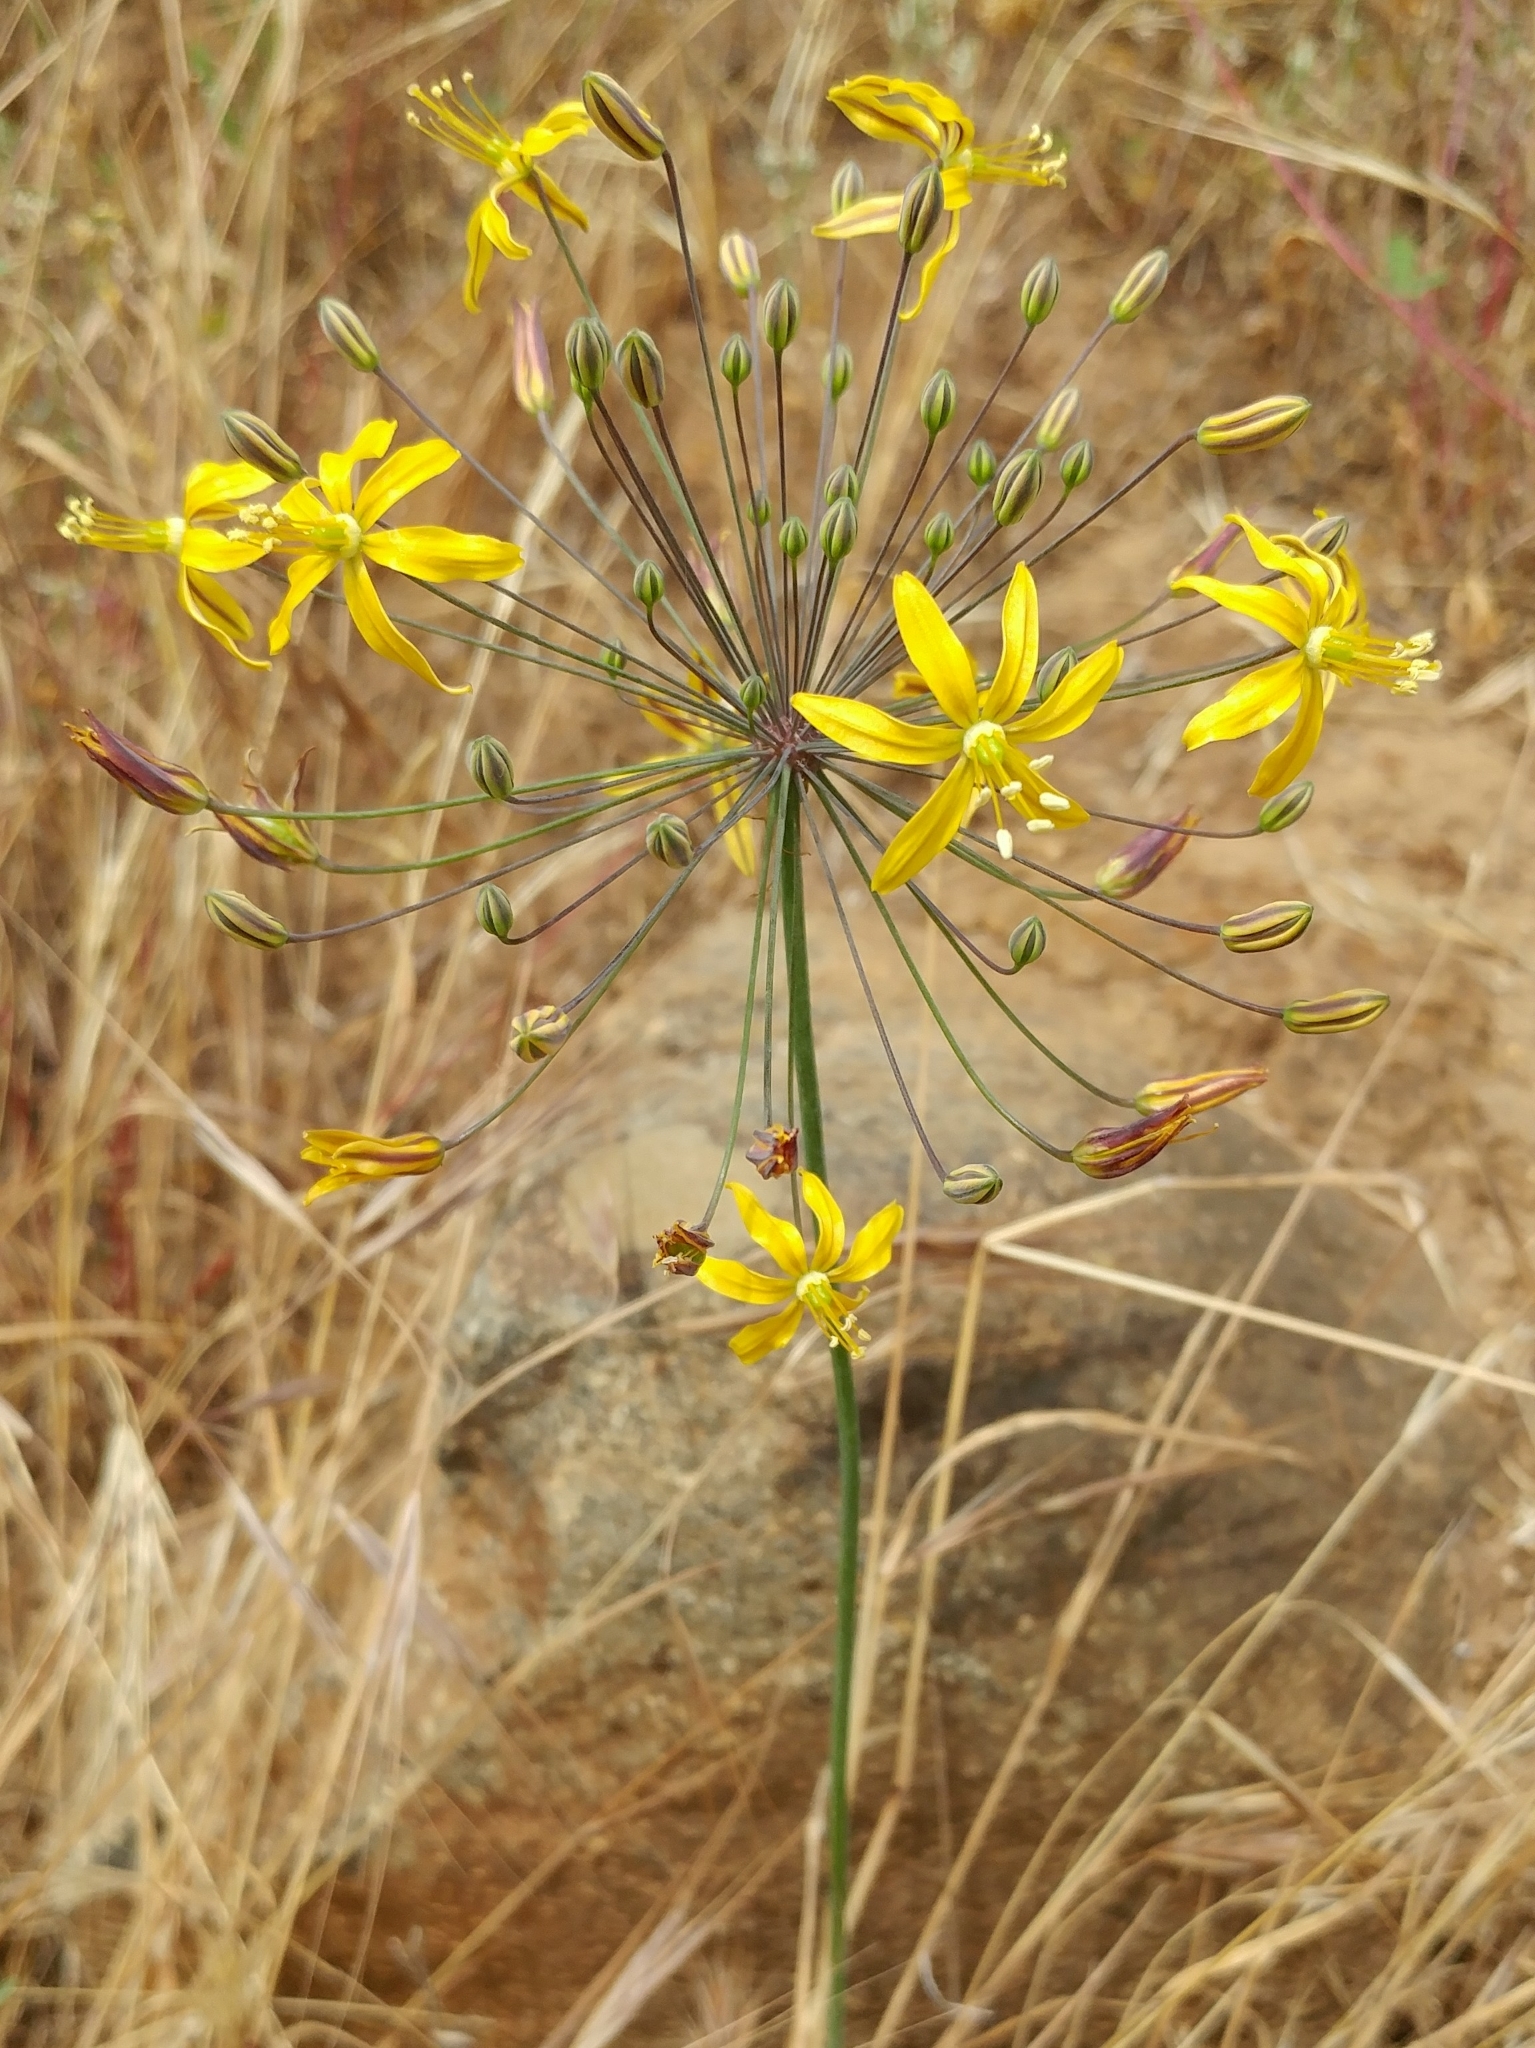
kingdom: Plantae
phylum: Tracheophyta
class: Liliopsida
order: Asparagales
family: Asparagaceae
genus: Bloomeria
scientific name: Bloomeria crocea
